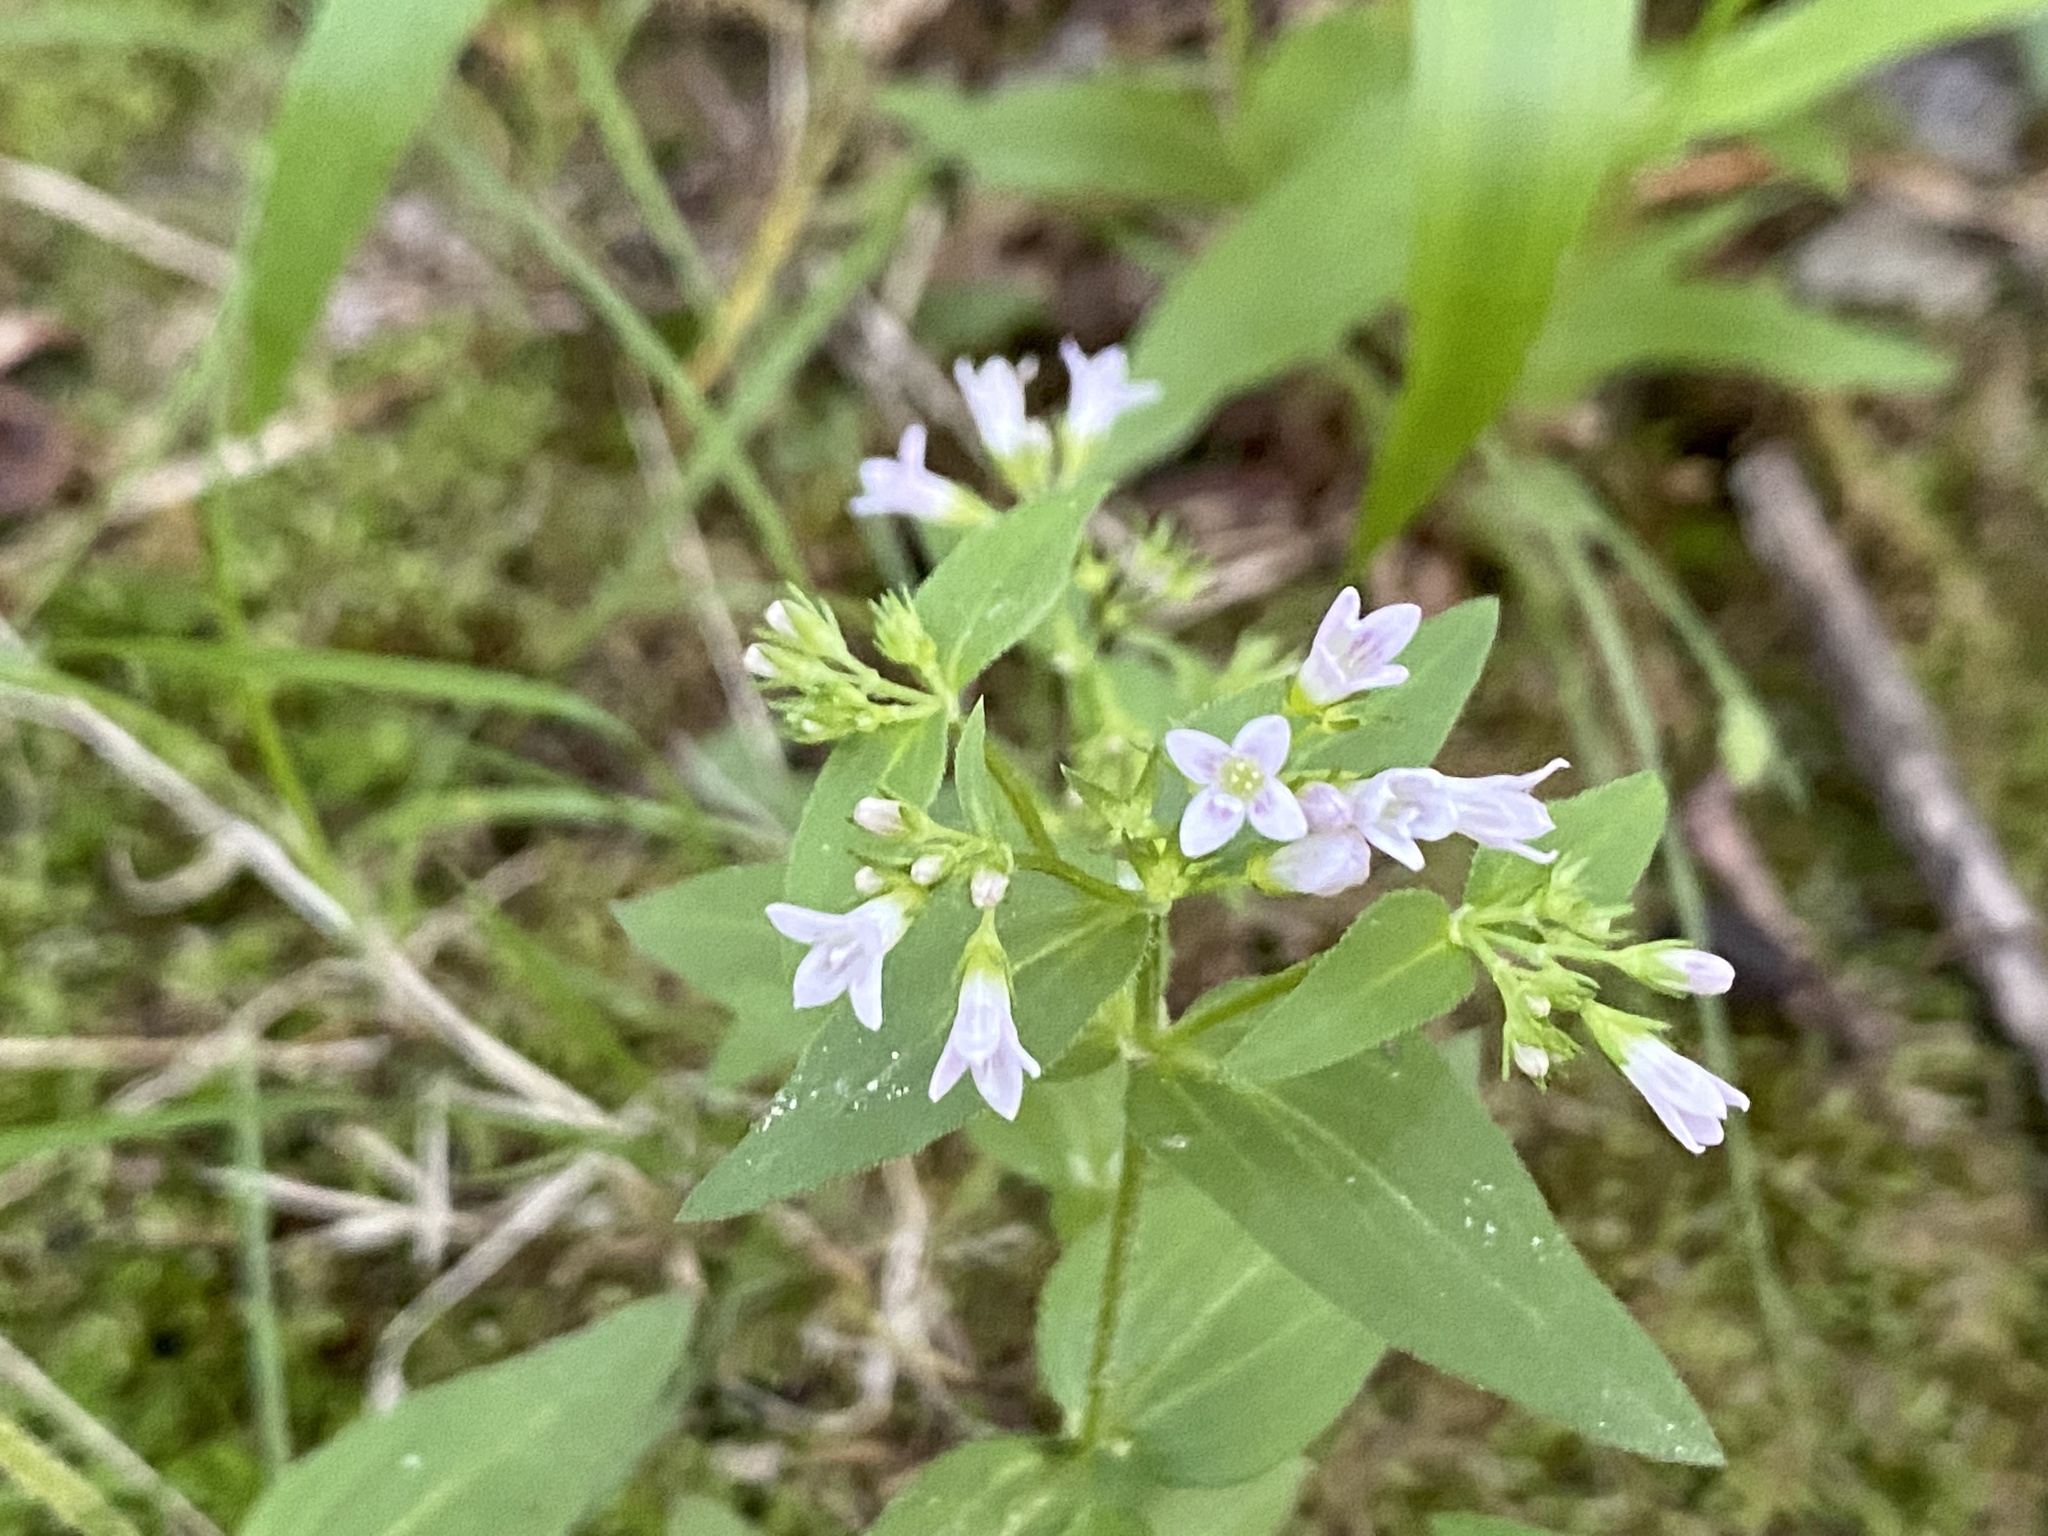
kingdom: Plantae
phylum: Tracheophyta
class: Magnoliopsida
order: Gentianales
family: Rubiaceae
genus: Houstonia
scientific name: Houstonia purpurea
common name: Summer bluet
